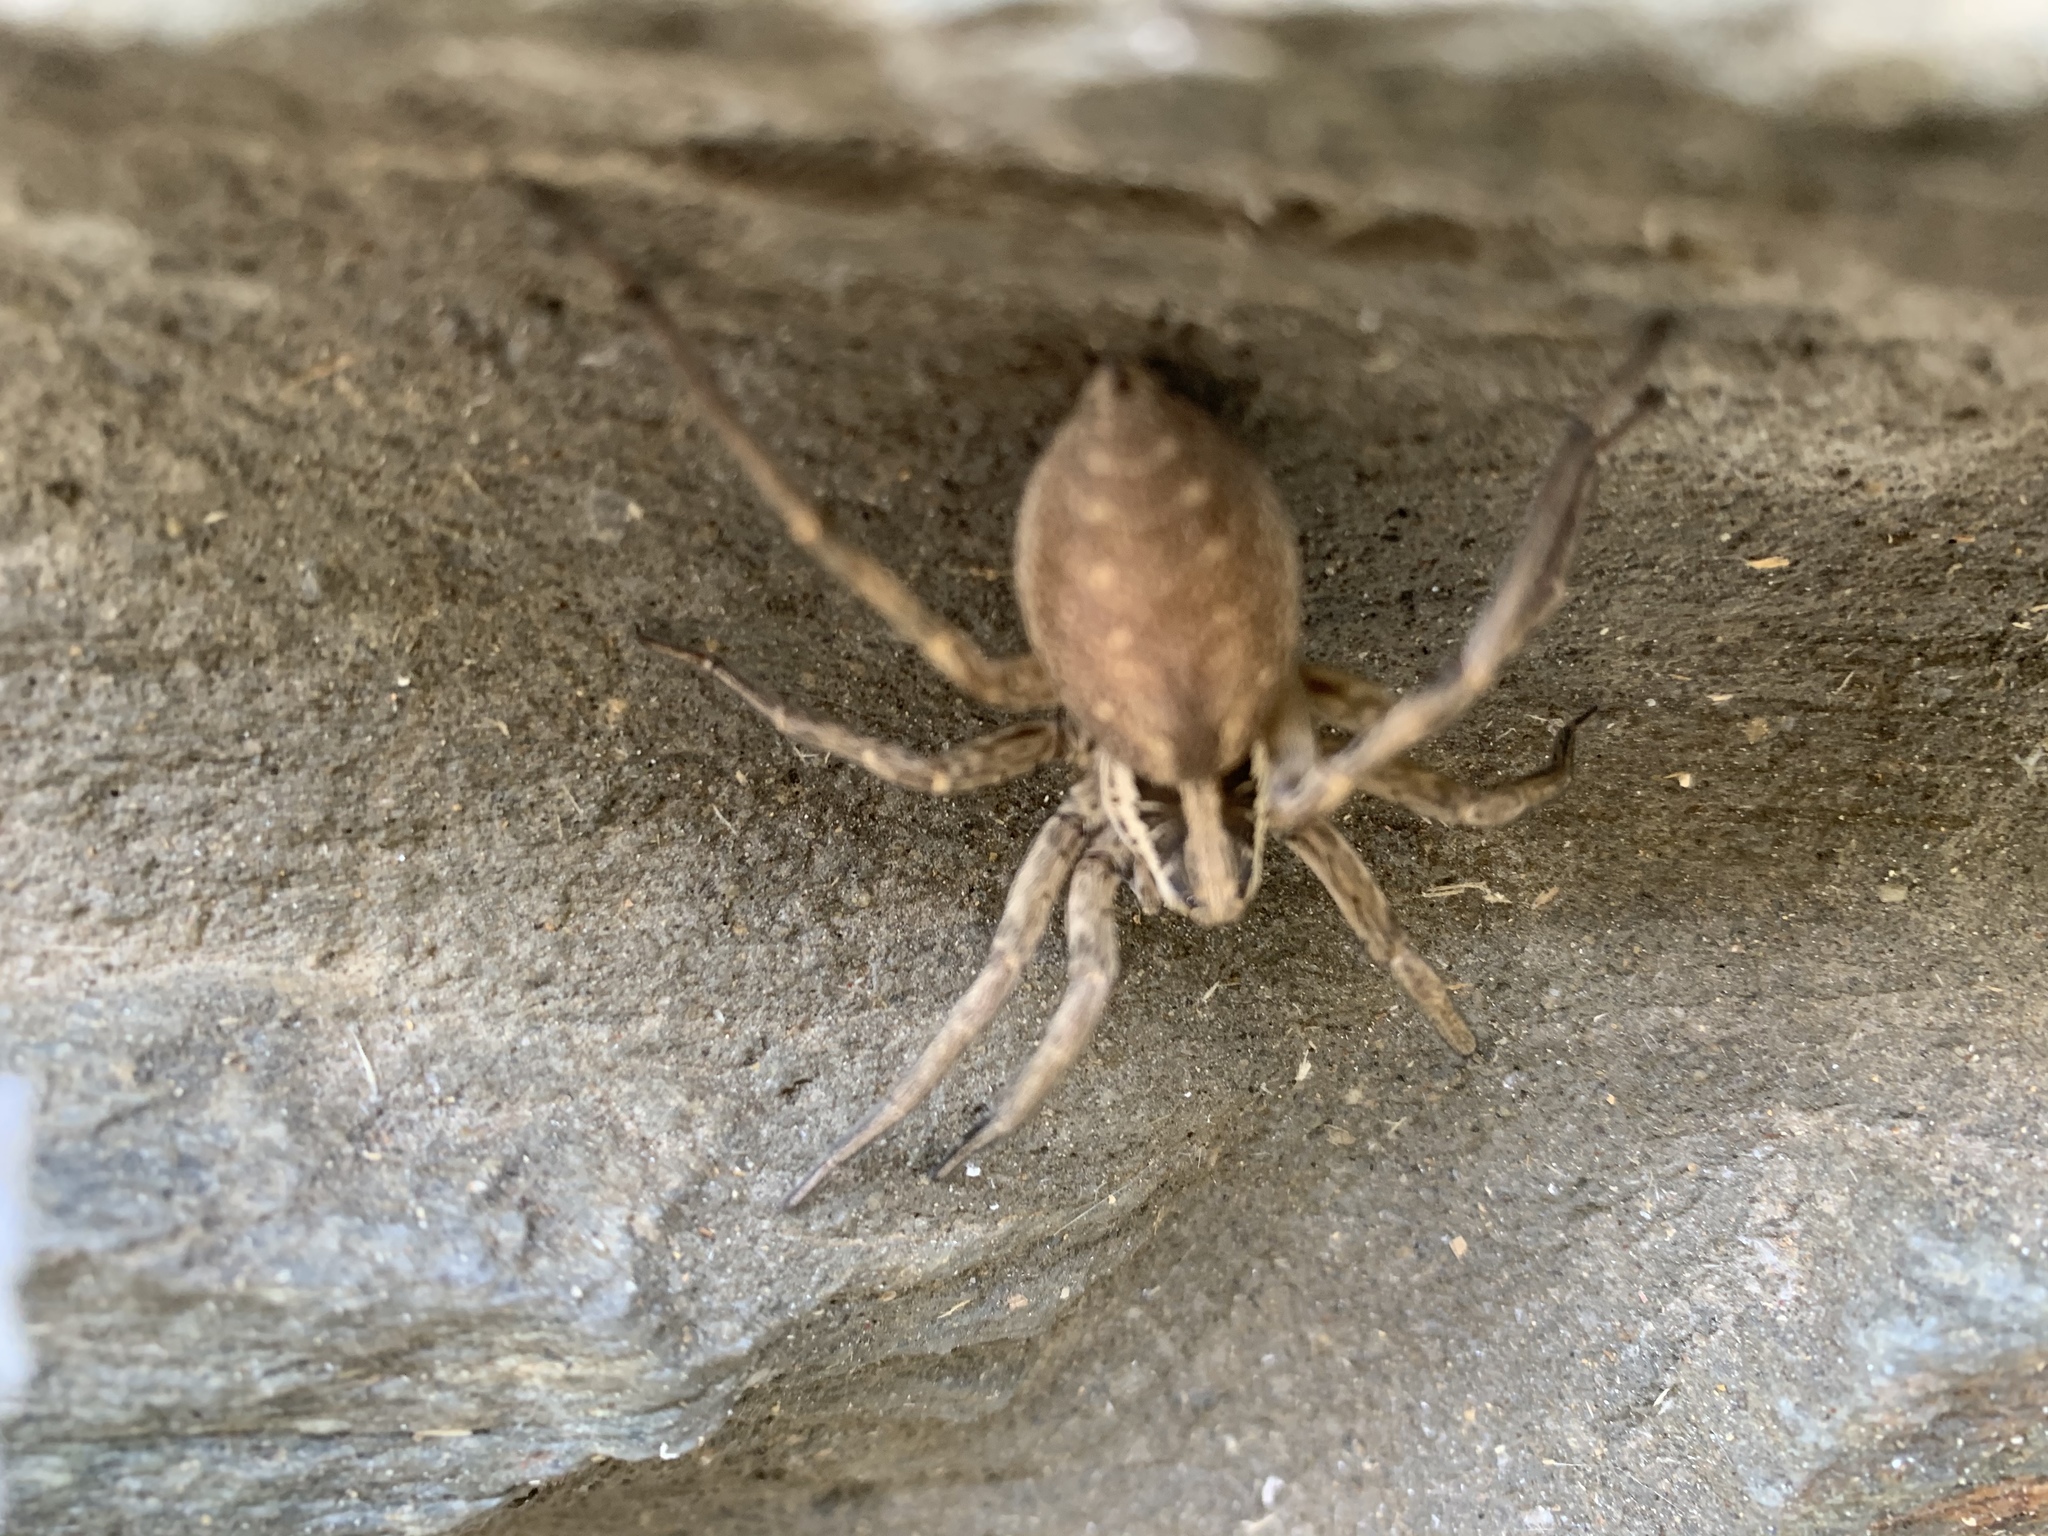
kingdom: Animalia
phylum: Arthropoda
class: Arachnida
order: Araneae
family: Lycosidae
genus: Hogna
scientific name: Hogna radiata
